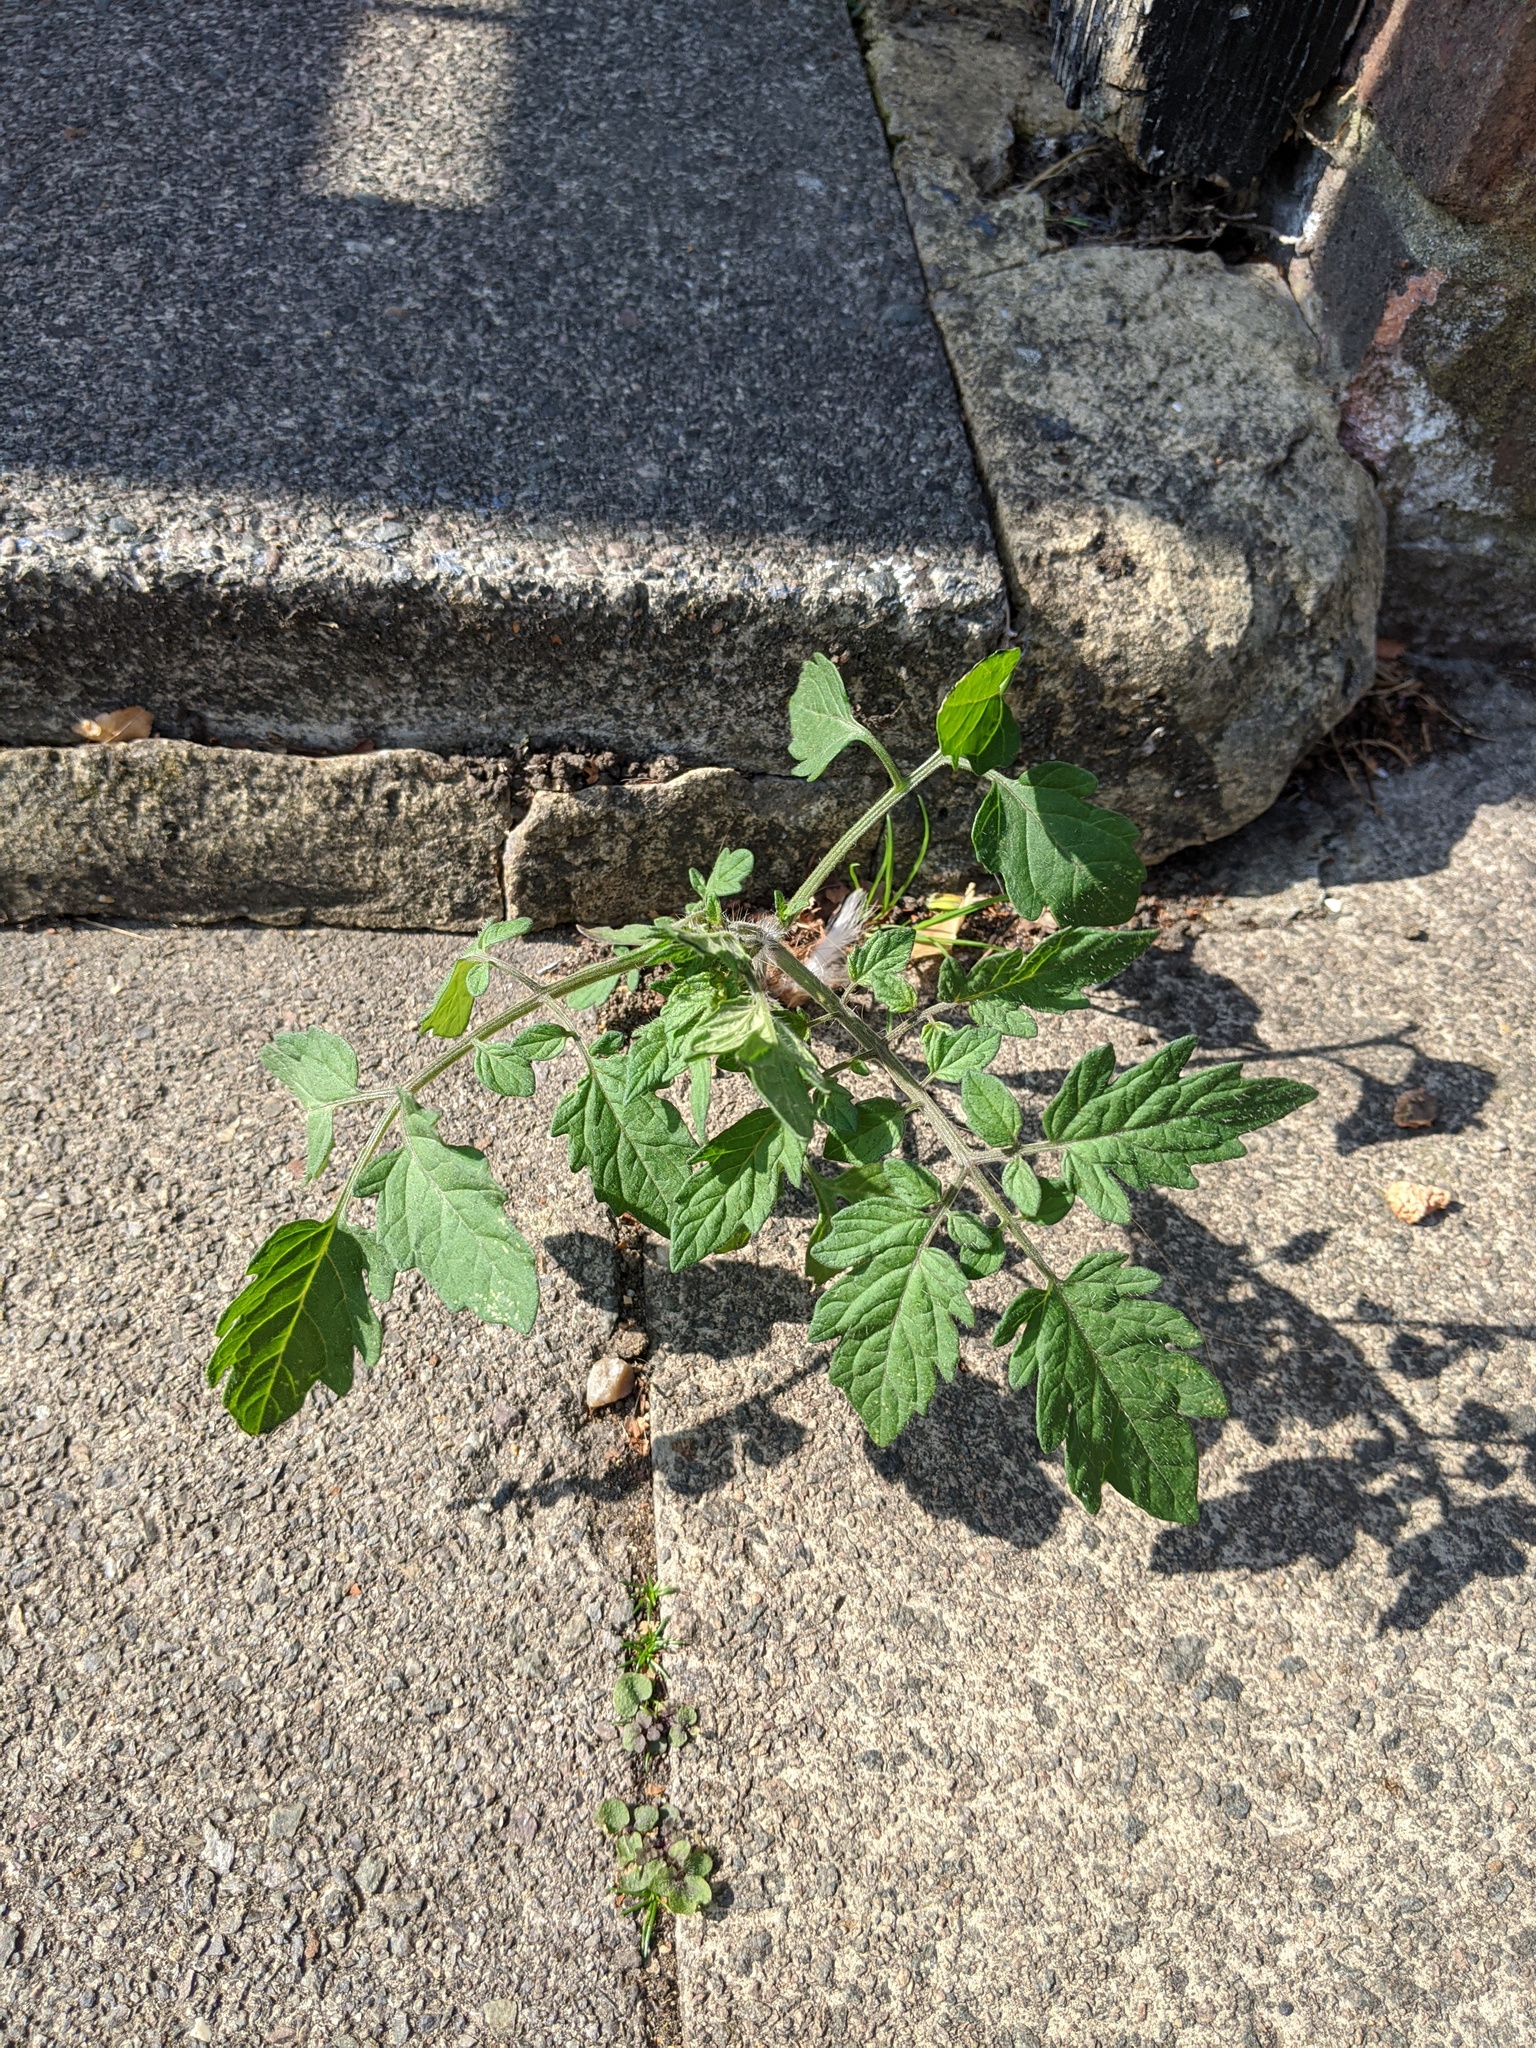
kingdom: Plantae
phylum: Tracheophyta
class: Magnoliopsida
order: Solanales
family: Solanaceae
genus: Solanum
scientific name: Solanum lycopersicum
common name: Garden tomato
